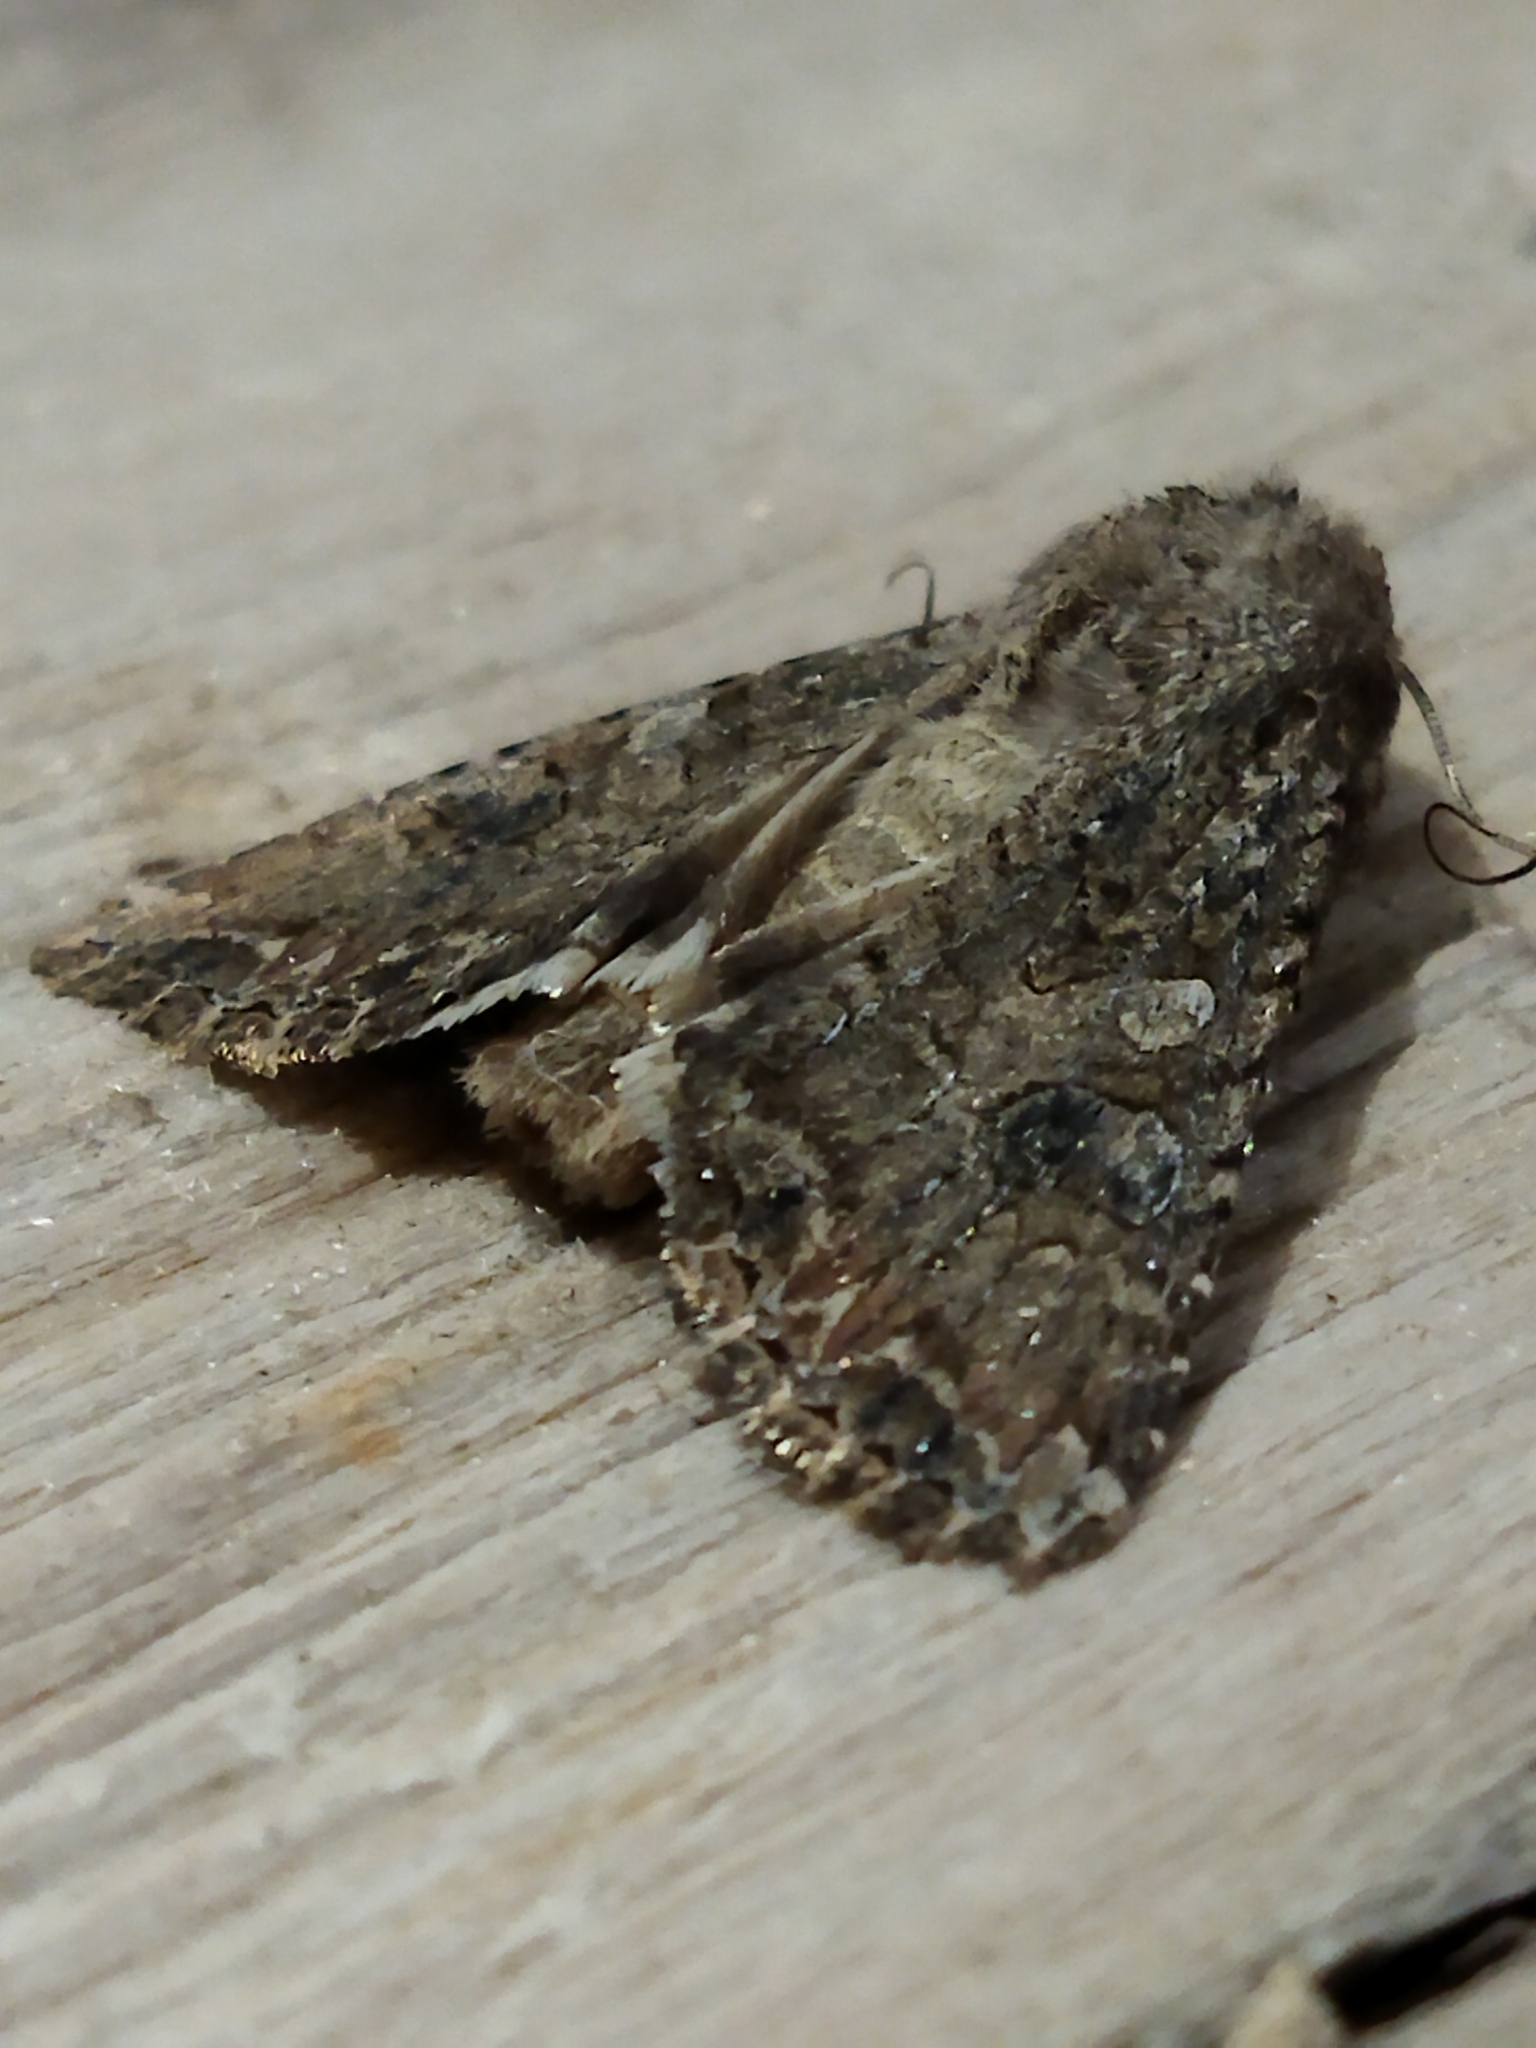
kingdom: Animalia
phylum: Arthropoda
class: Insecta
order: Lepidoptera
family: Noctuidae
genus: Anarta
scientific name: Anarta trifolii
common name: Clover cutworm moth
